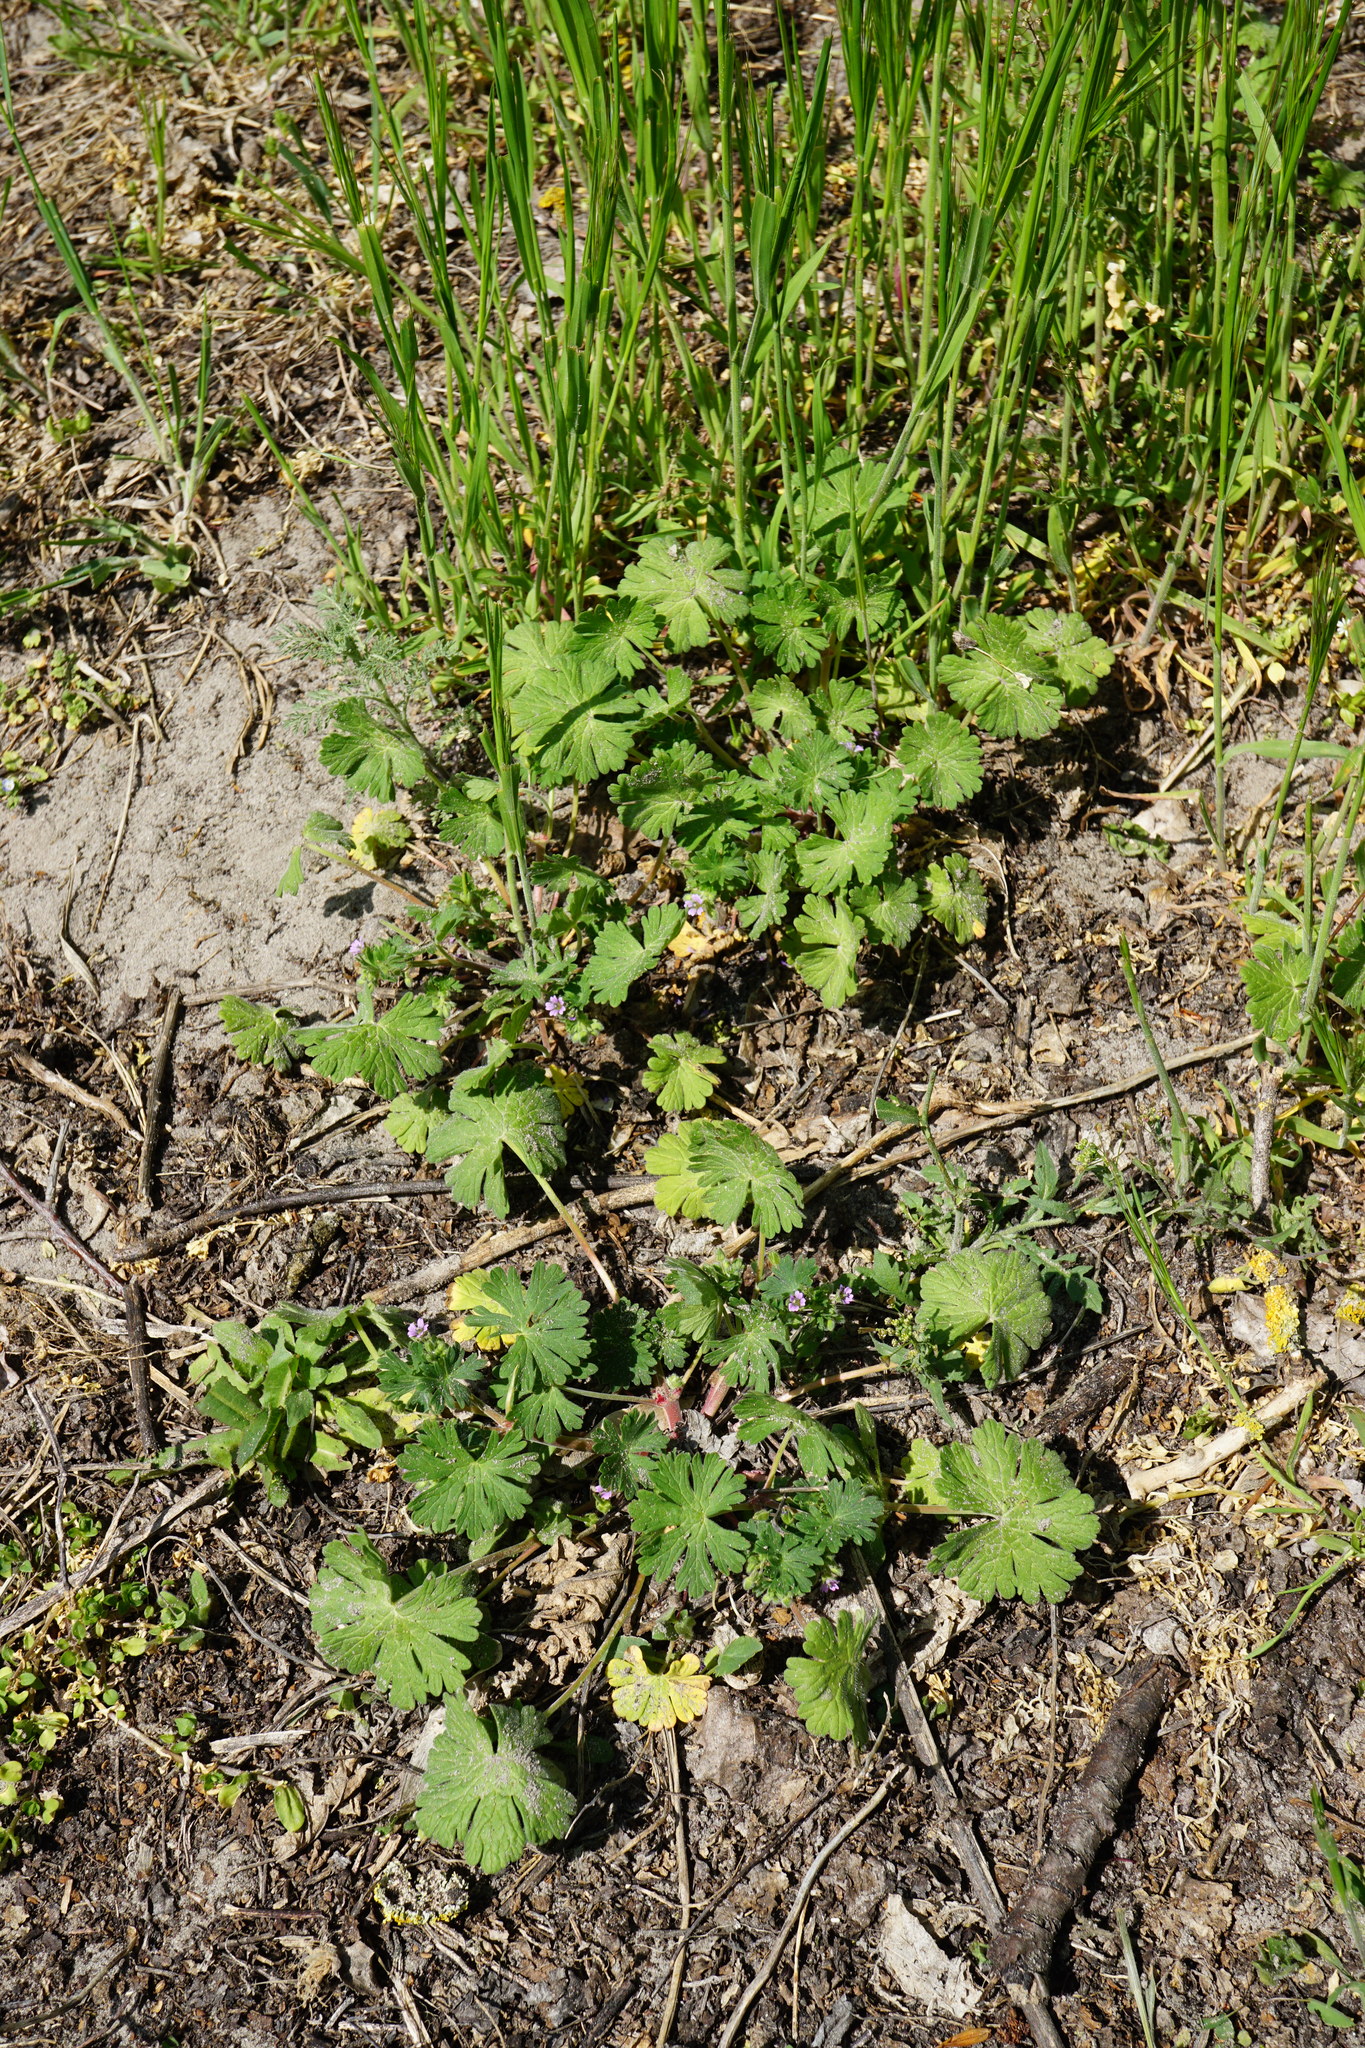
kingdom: Plantae
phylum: Tracheophyta
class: Magnoliopsida
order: Geraniales
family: Geraniaceae
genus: Geranium
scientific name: Geranium pusillum
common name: Small geranium
